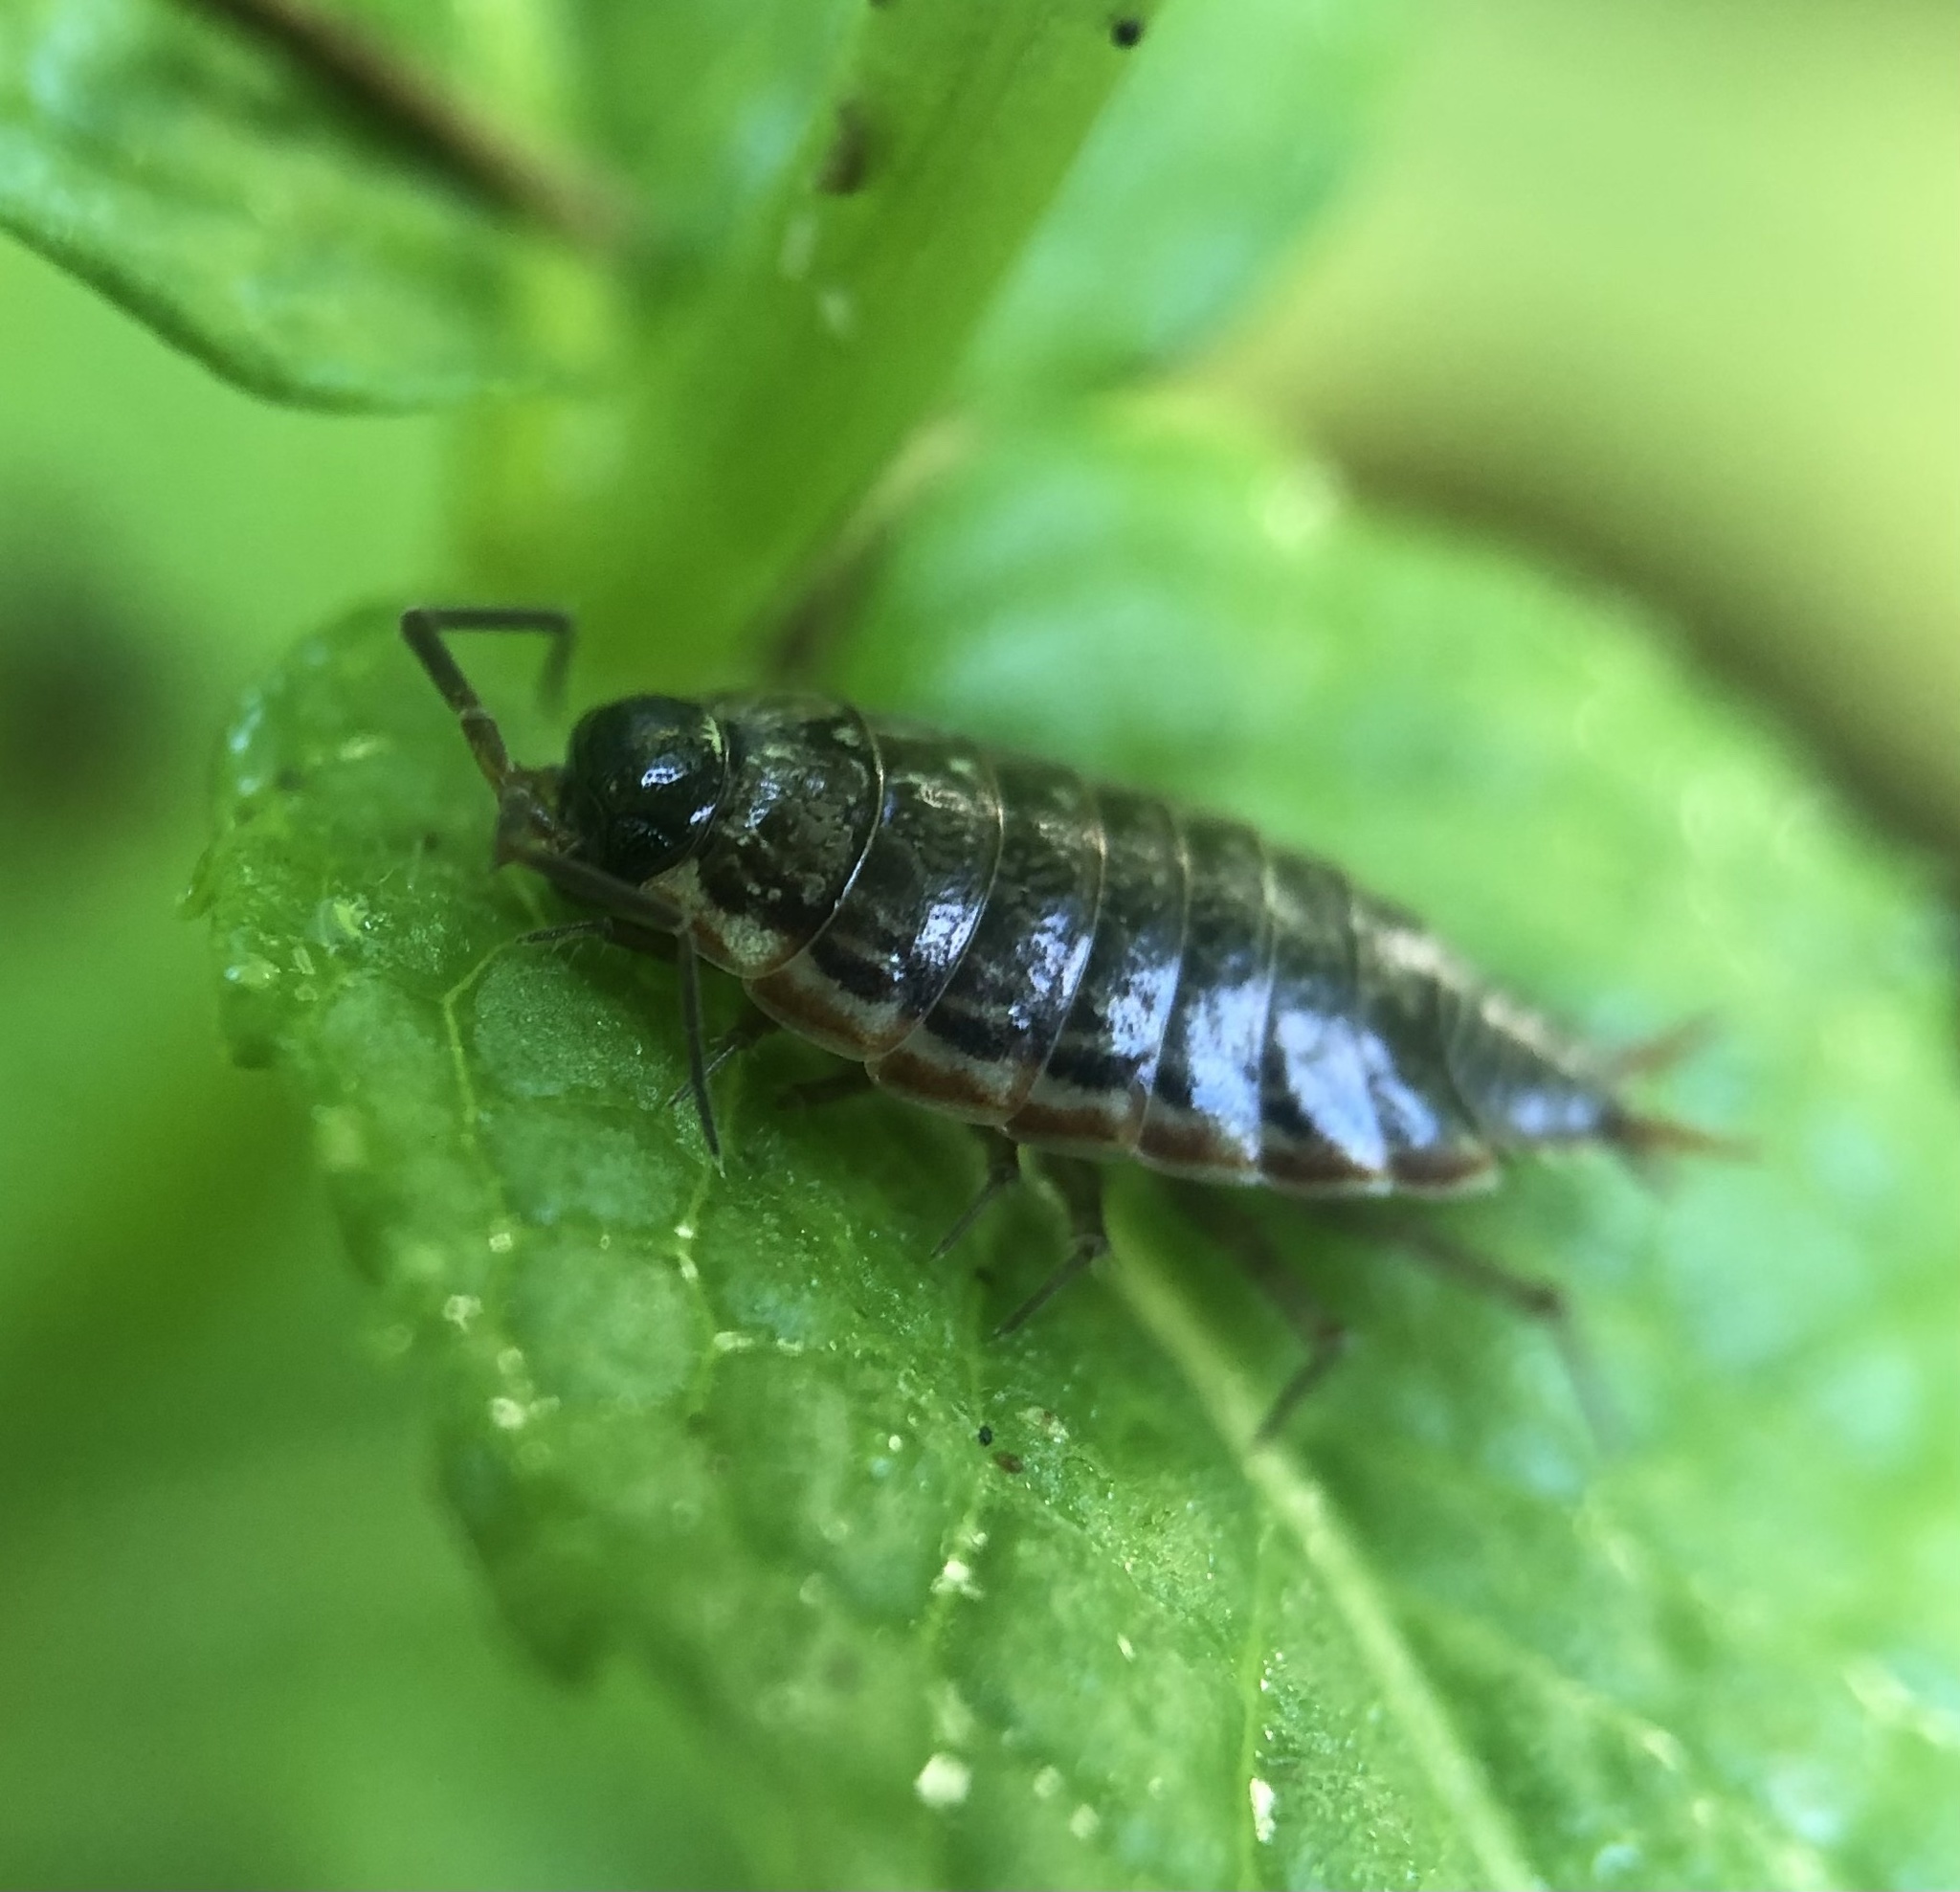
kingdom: Animalia
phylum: Arthropoda
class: Malacostraca
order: Isopoda
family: Philosciidae
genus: Philoscia
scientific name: Philoscia muscorum
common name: Common striped woodlouse
